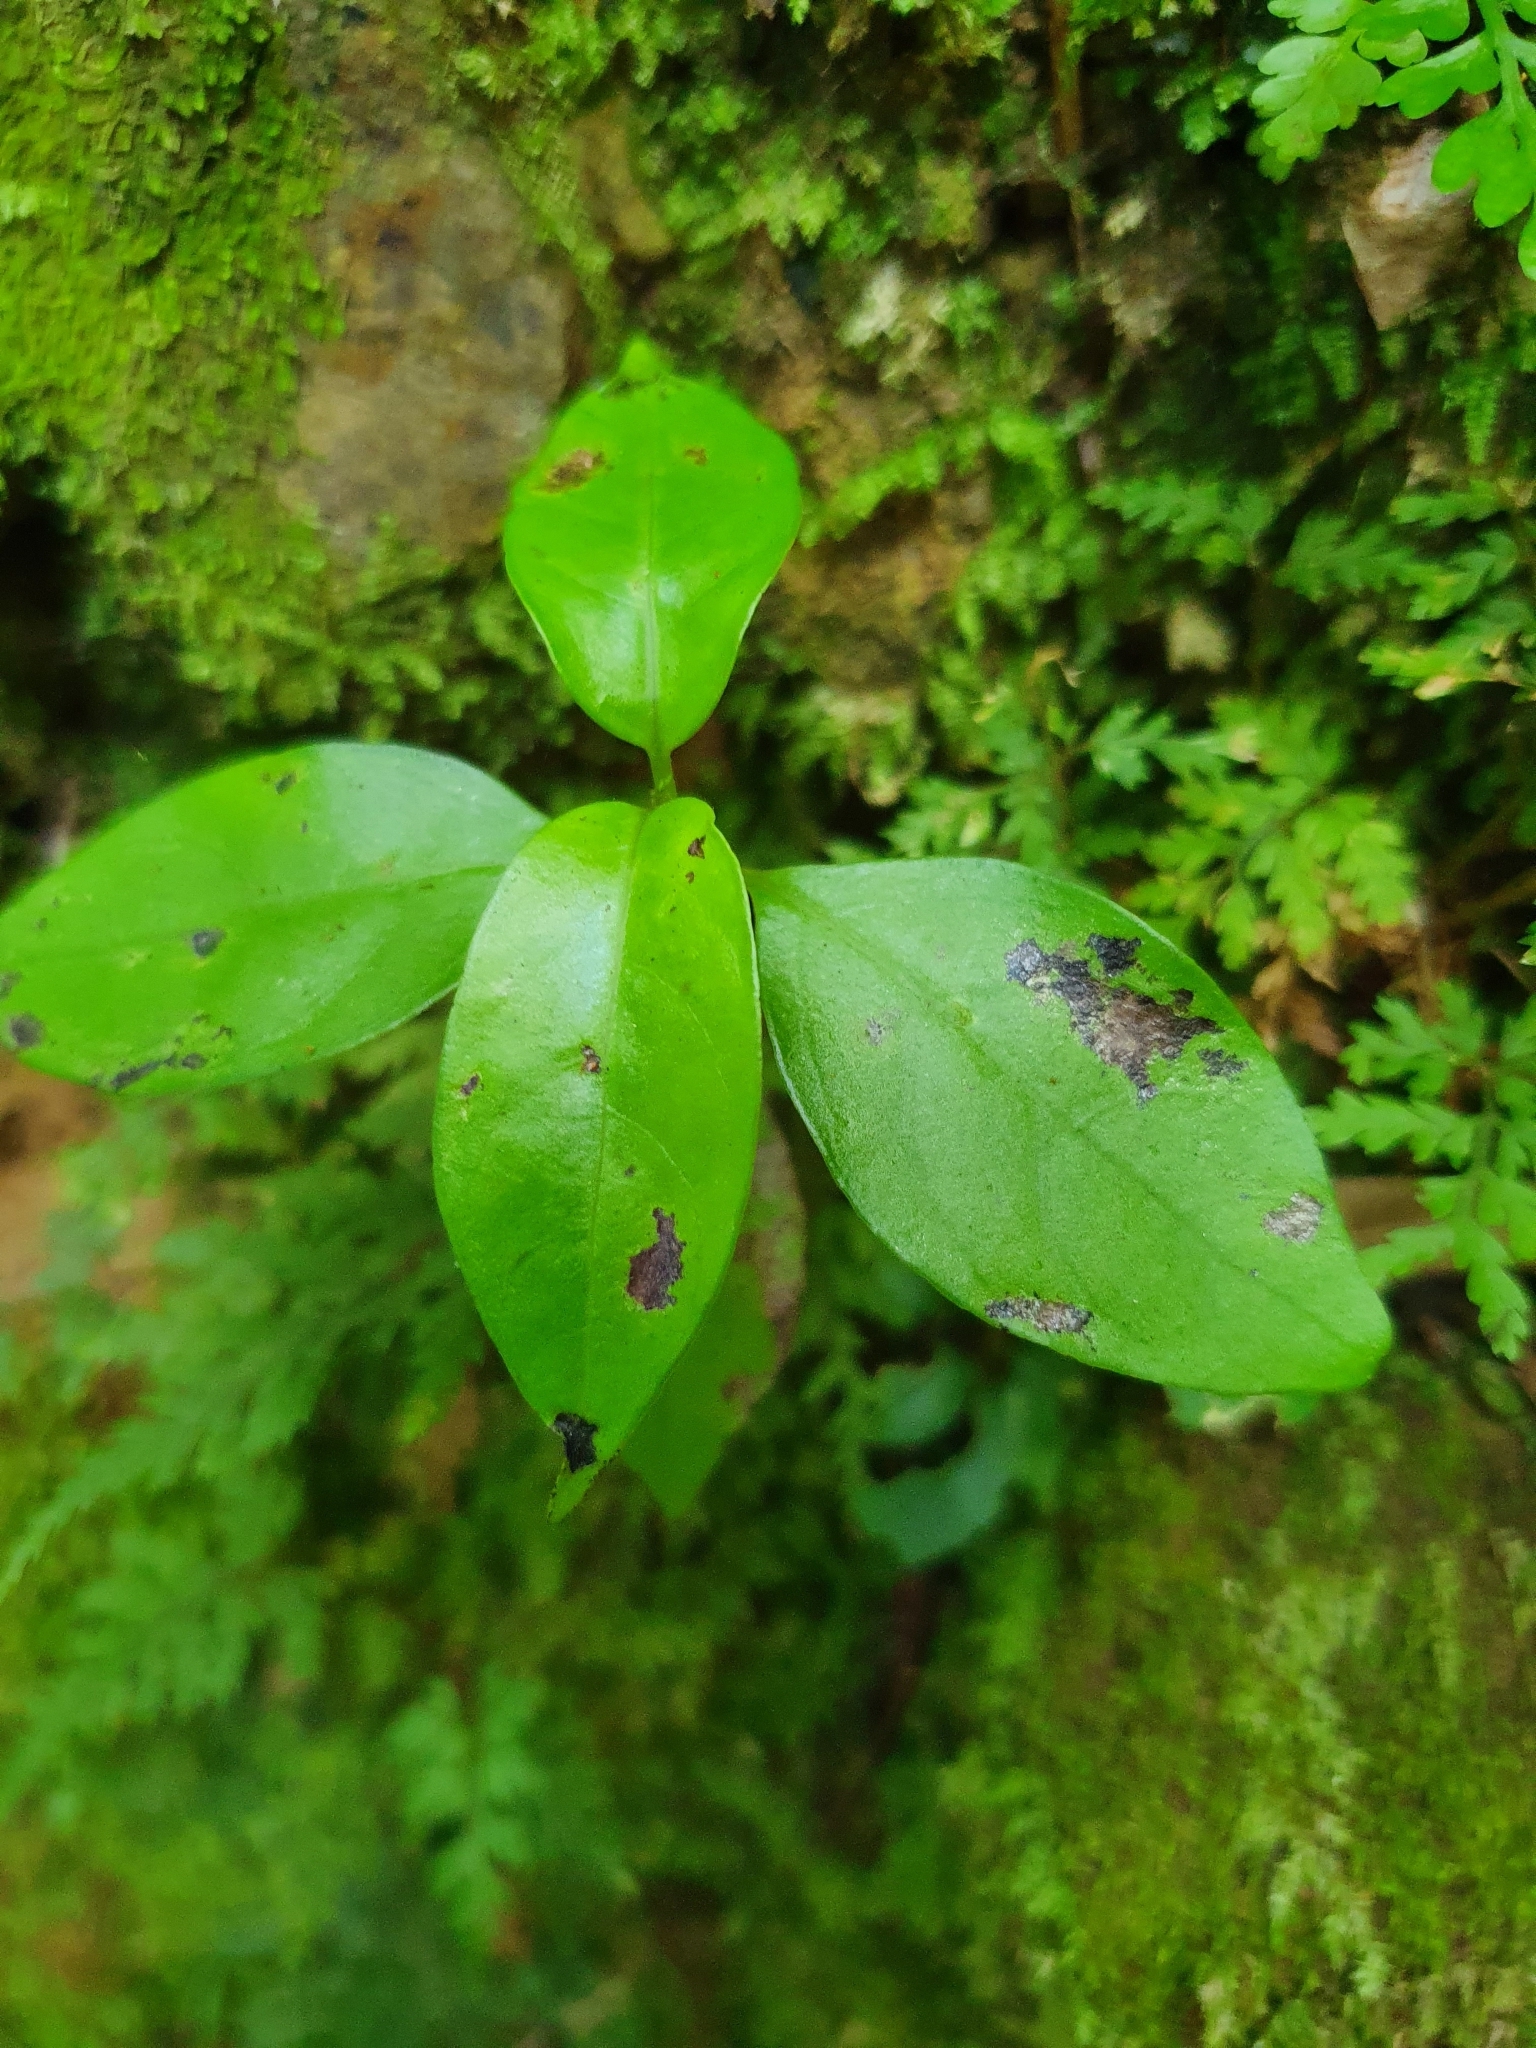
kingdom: Plantae
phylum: Tracheophyta
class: Magnoliopsida
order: Gentianales
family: Loganiaceae
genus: Geniostoma
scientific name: Geniostoma ligustrifolium
